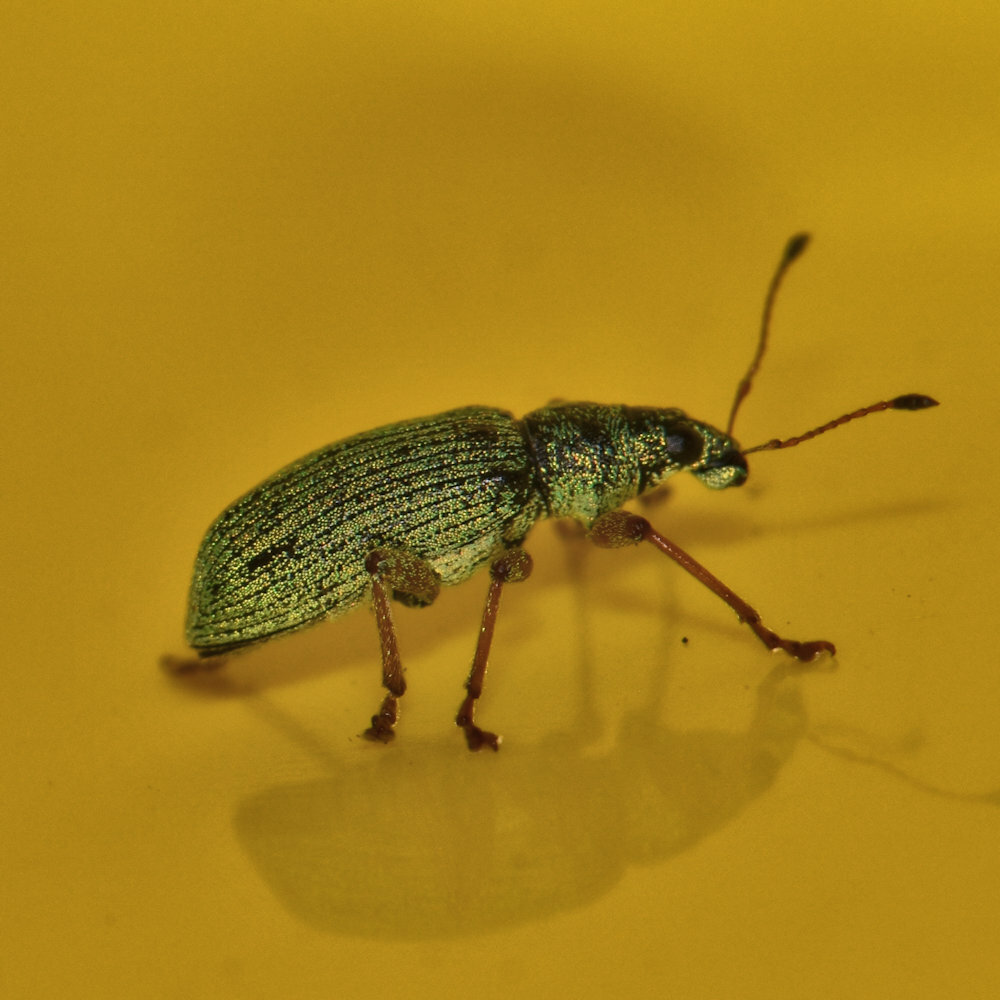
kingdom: Animalia
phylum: Arthropoda
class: Insecta
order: Coleoptera
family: Curculionidae
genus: Polydrusus
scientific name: Polydrusus formosus
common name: Weevil
